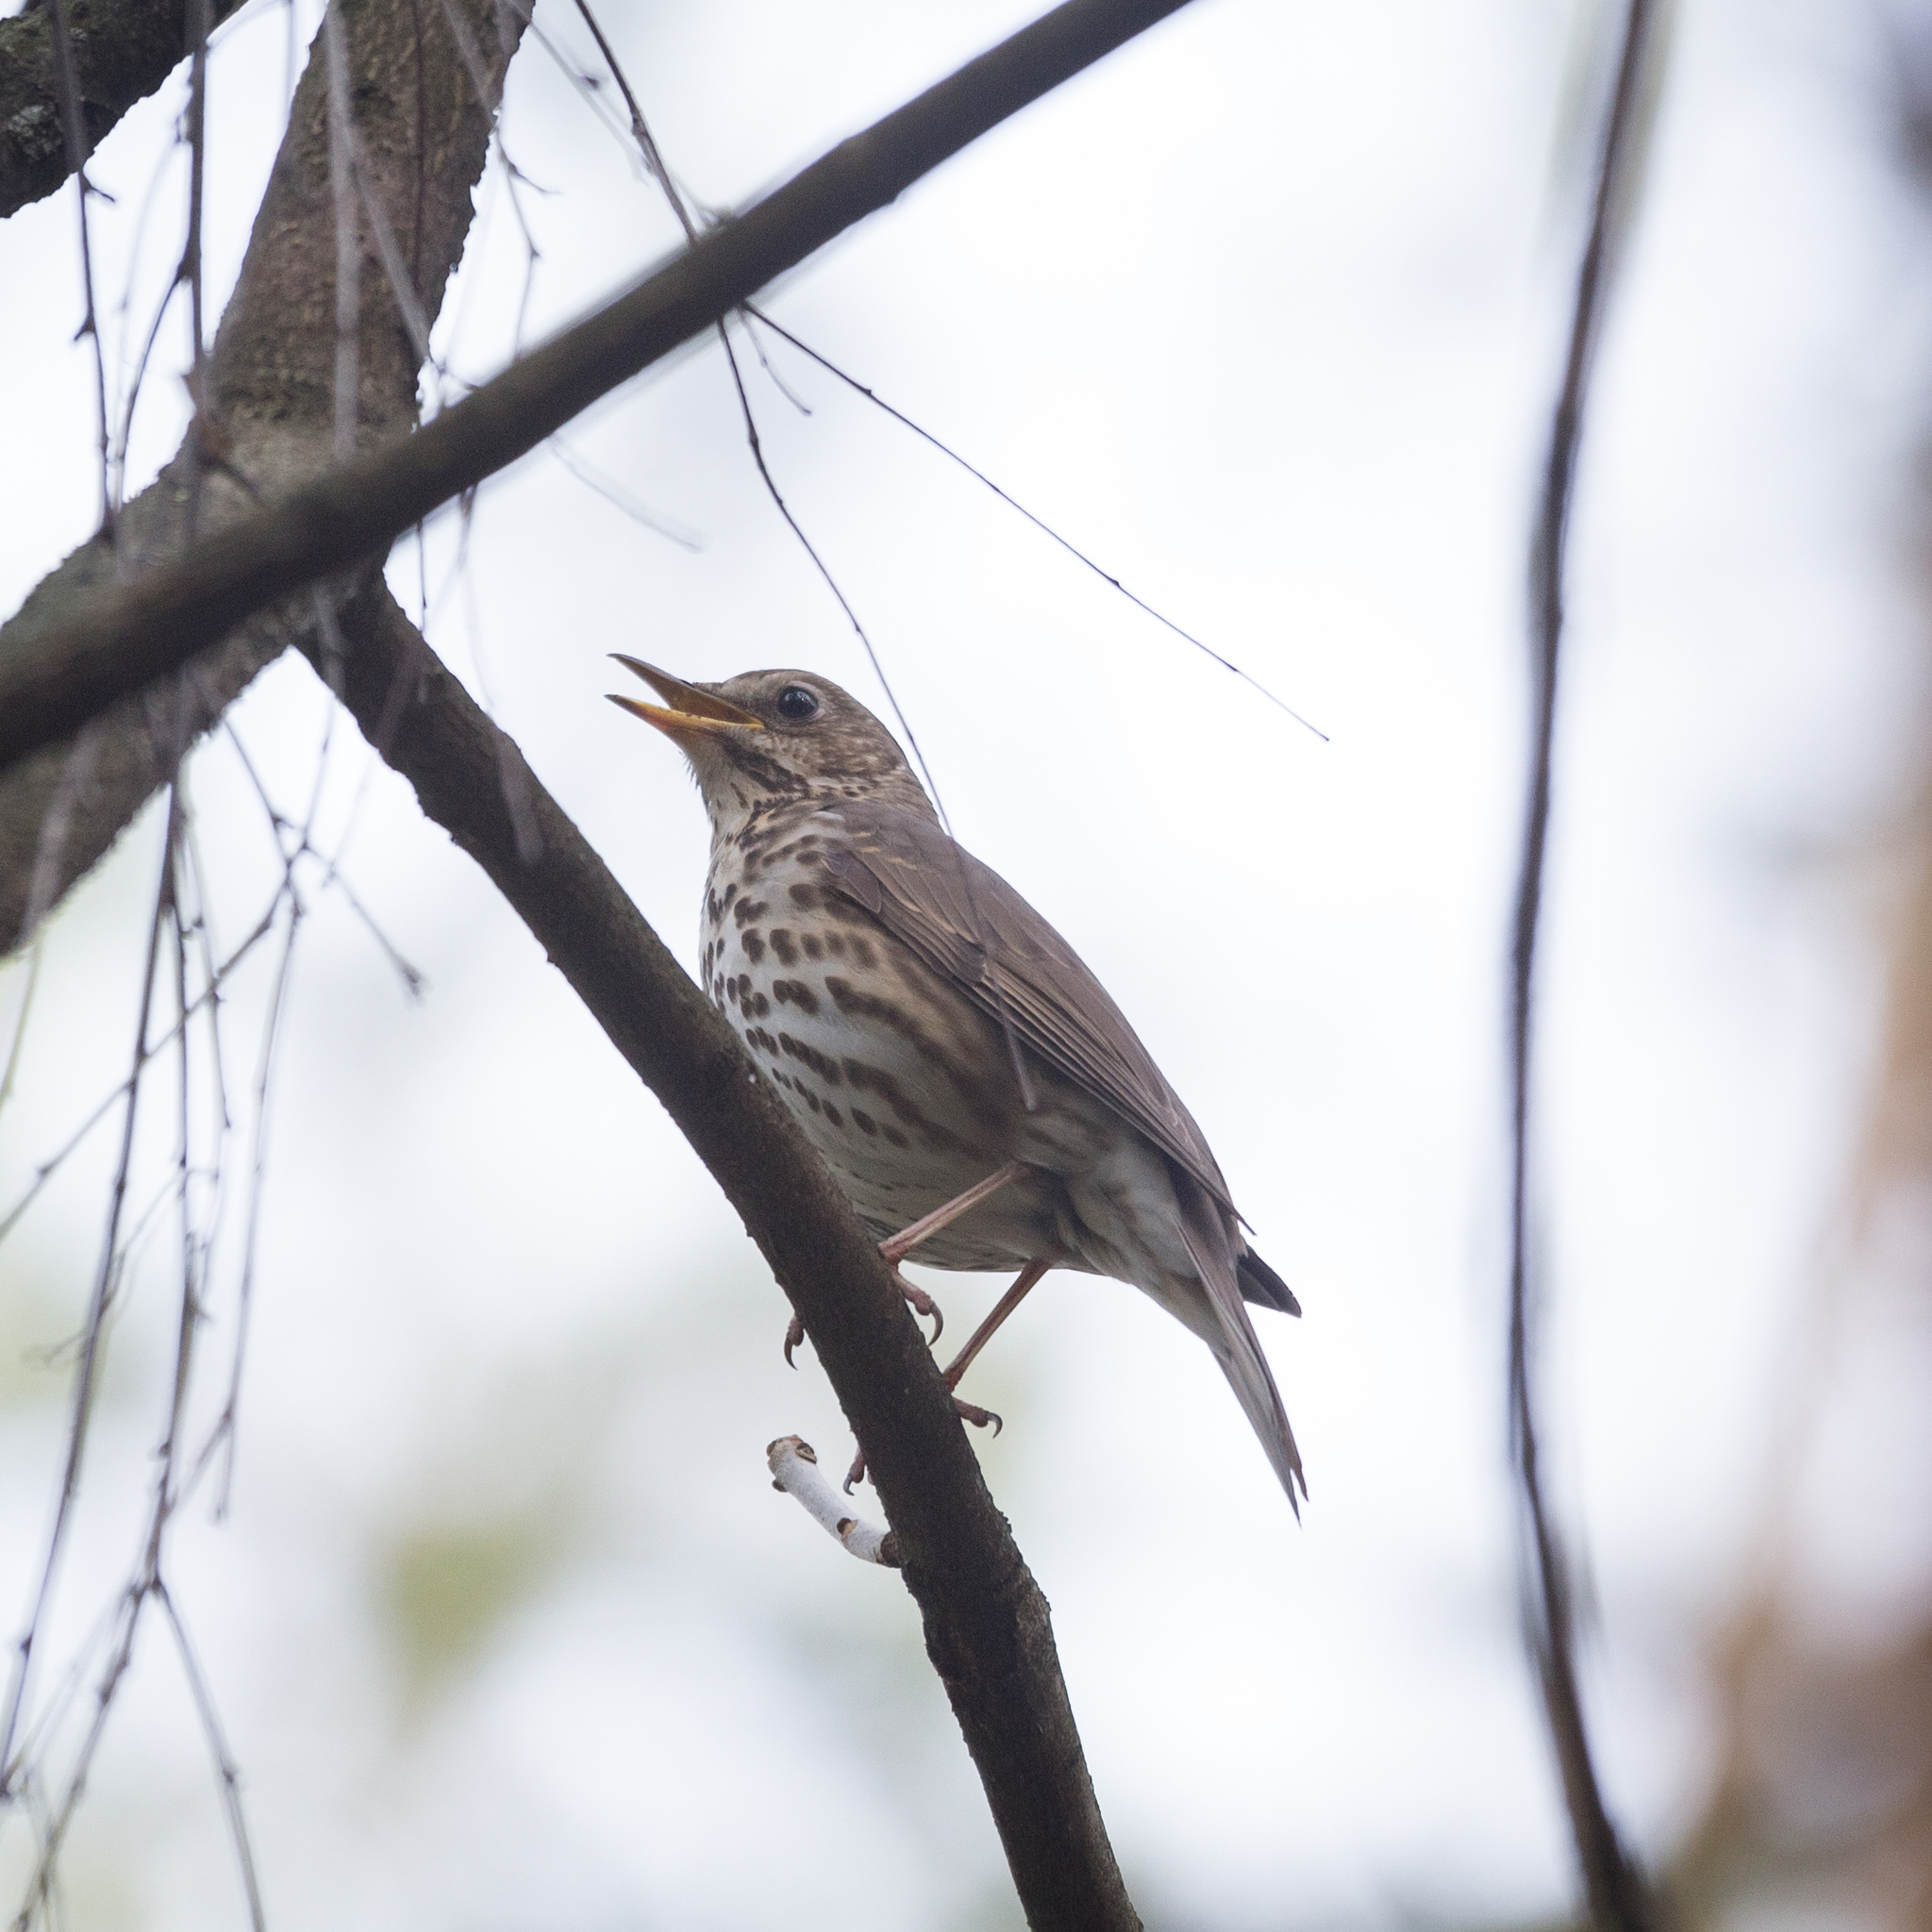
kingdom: Animalia
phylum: Chordata
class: Aves
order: Passeriformes
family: Turdidae
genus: Turdus
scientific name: Turdus philomelos
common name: Song thrush
